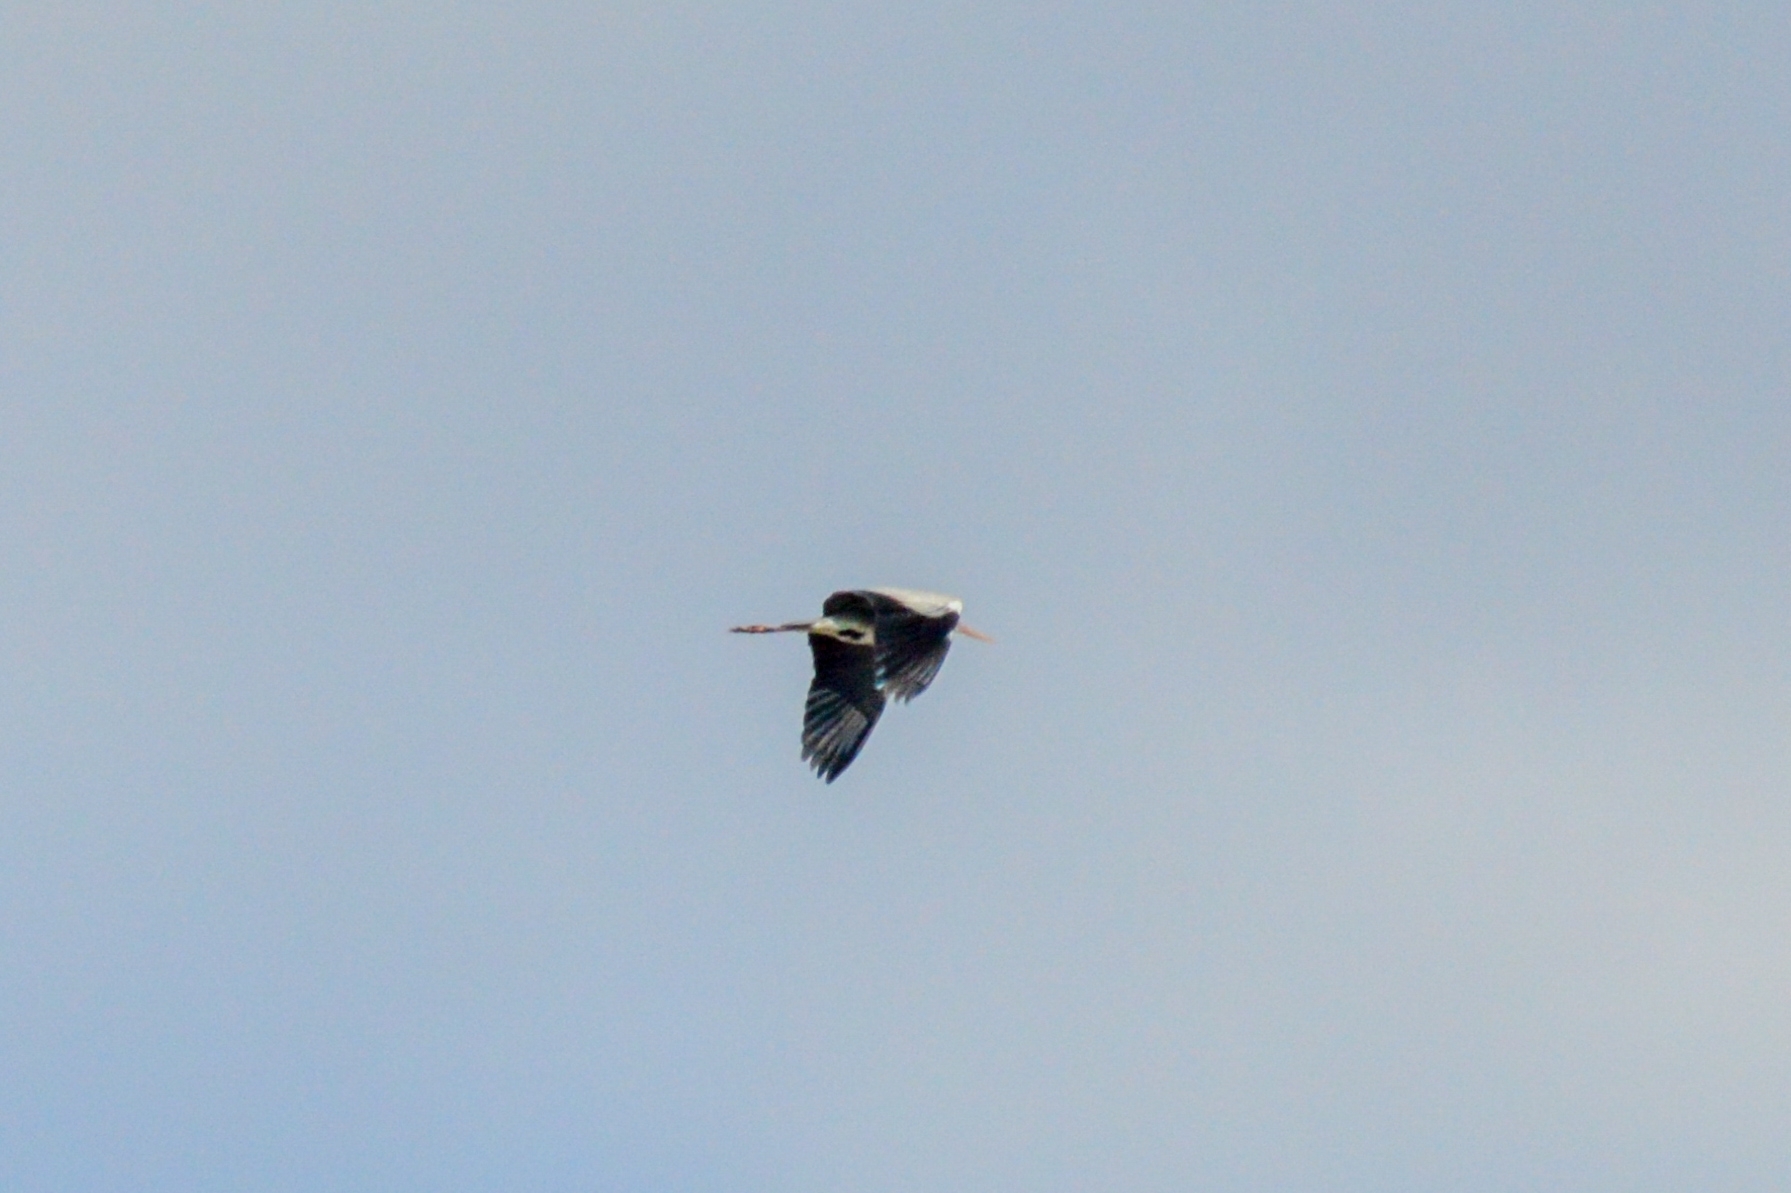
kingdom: Animalia
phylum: Chordata
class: Aves
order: Pelecaniformes
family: Ardeidae
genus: Ardea
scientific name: Ardea cinerea
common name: Grey heron
